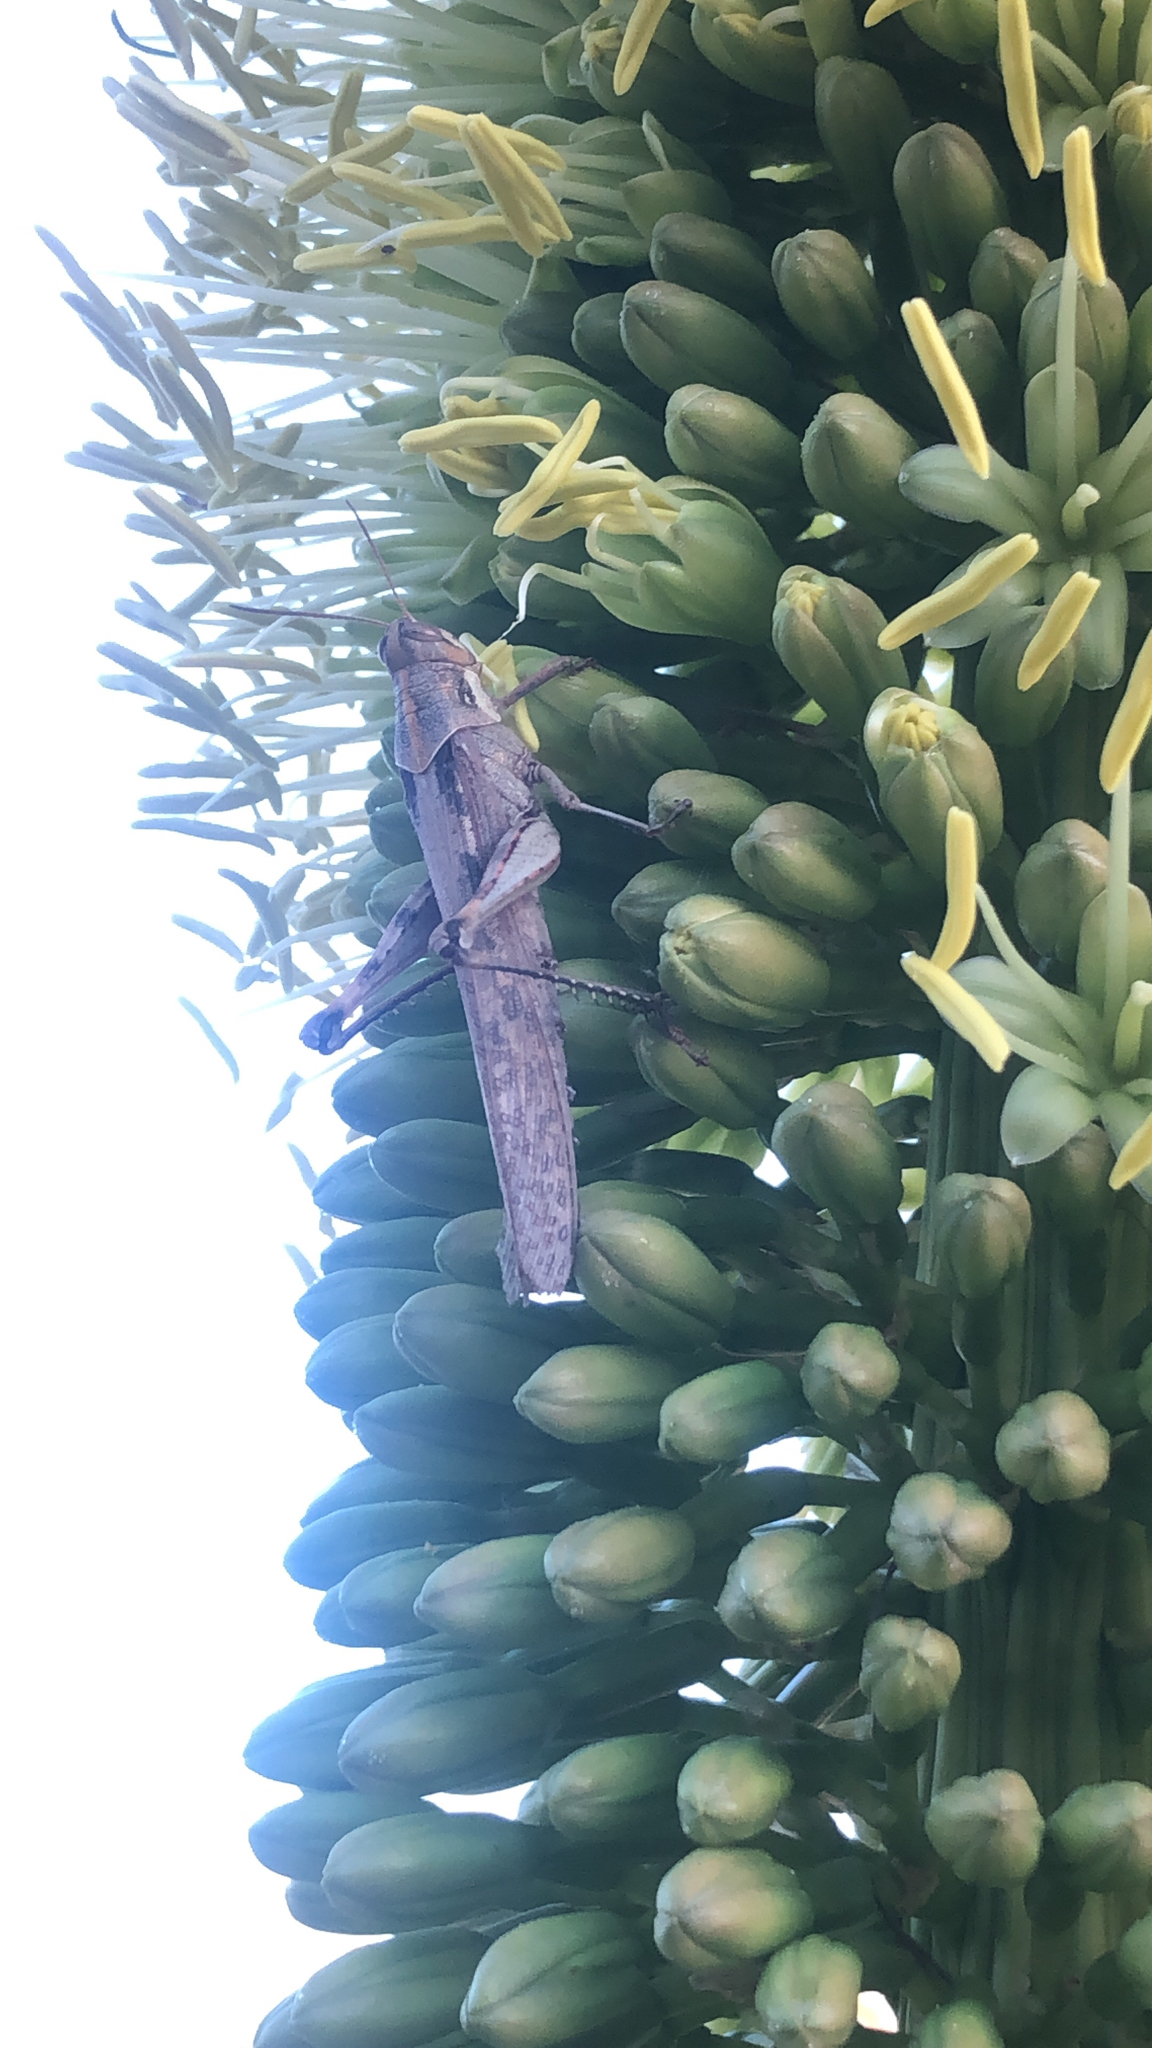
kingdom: Animalia
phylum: Arthropoda
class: Insecta
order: Orthoptera
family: Acrididae
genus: Schistocerca
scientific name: Schistocerca nitens
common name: Vagrant grasshopper
